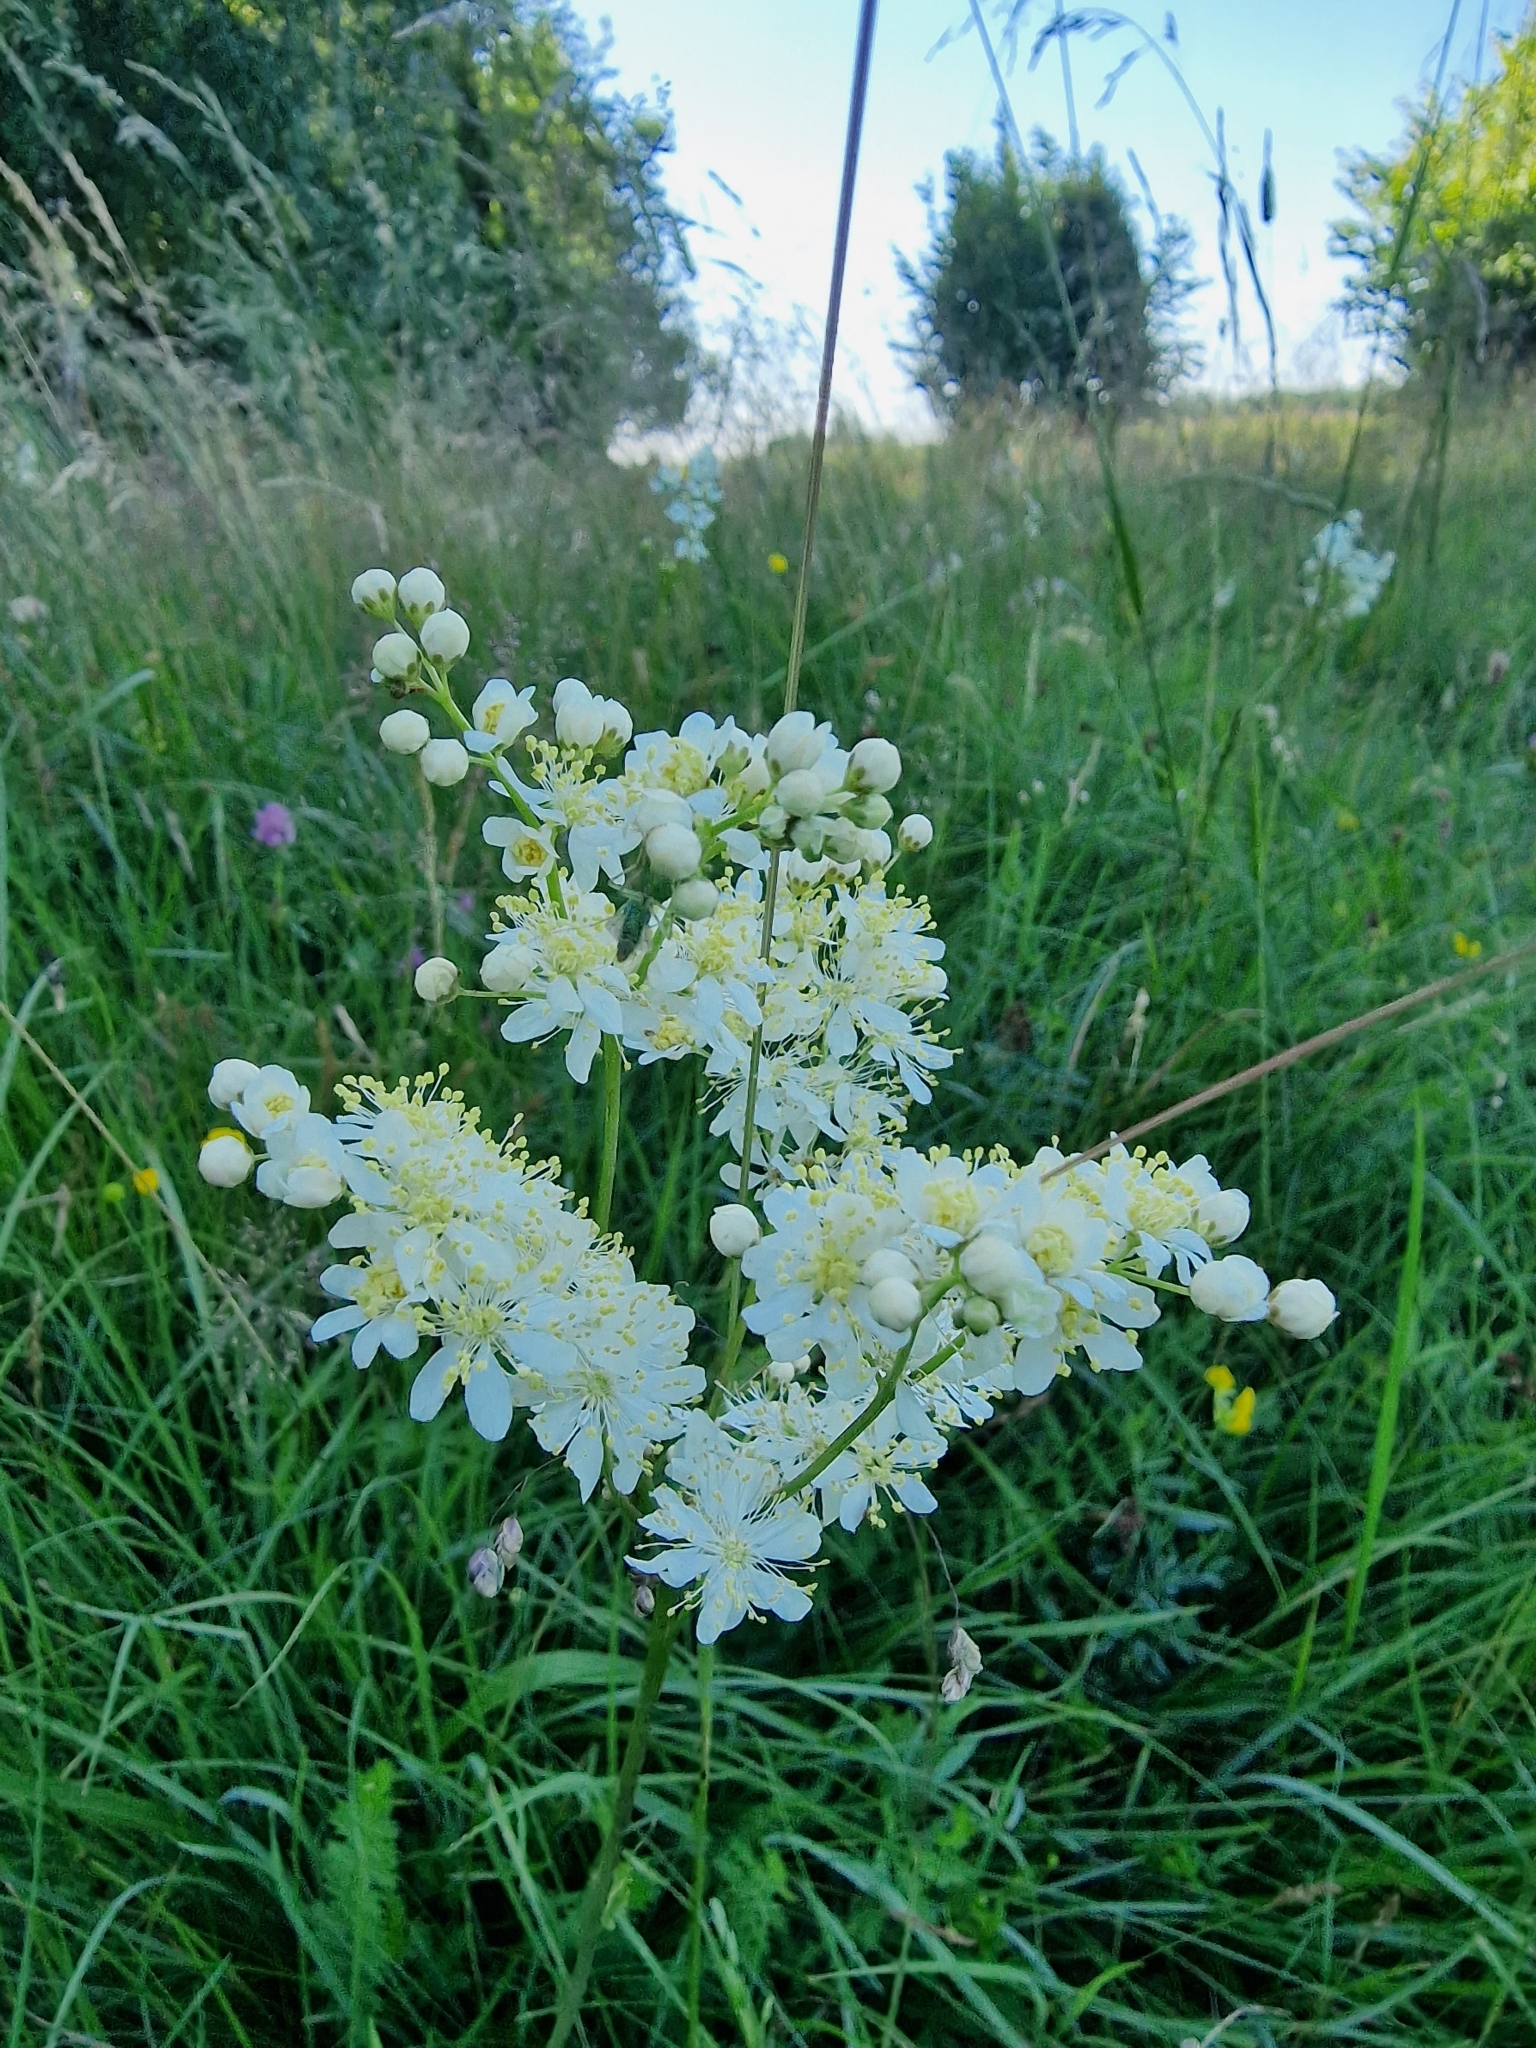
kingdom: Plantae
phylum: Tracheophyta
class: Magnoliopsida
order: Rosales
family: Rosaceae
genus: Filipendula
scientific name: Filipendula vulgaris
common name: Dropwort
